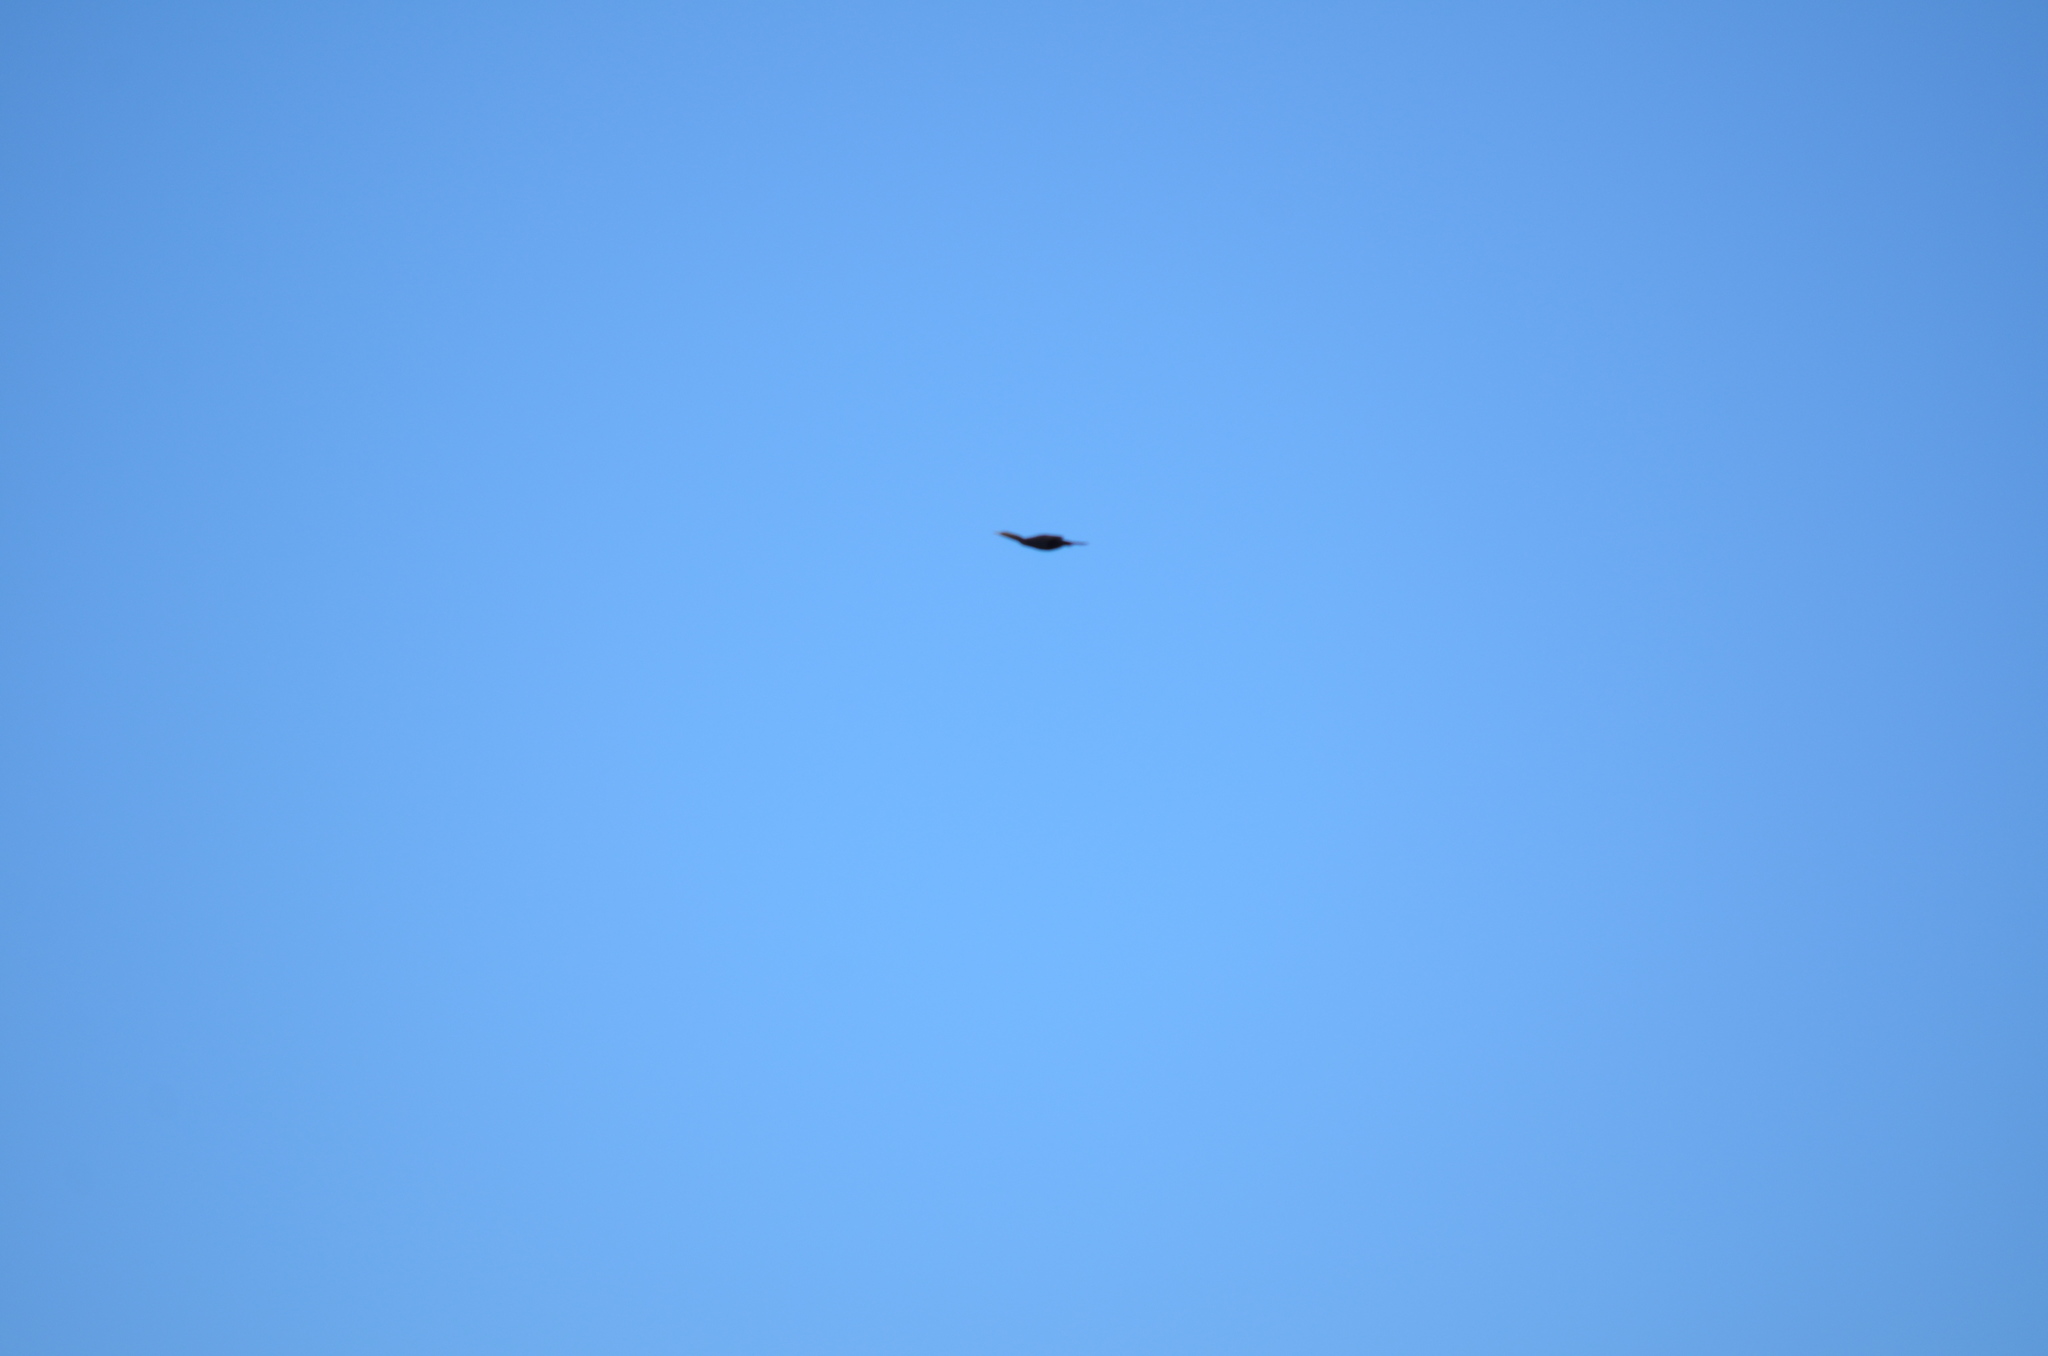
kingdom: Animalia
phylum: Chordata
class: Aves
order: Suliformes
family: Phalacrocoracidae
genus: Phalacrocorax
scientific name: Phalacrocorax auritus
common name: Double-crested cormorant
